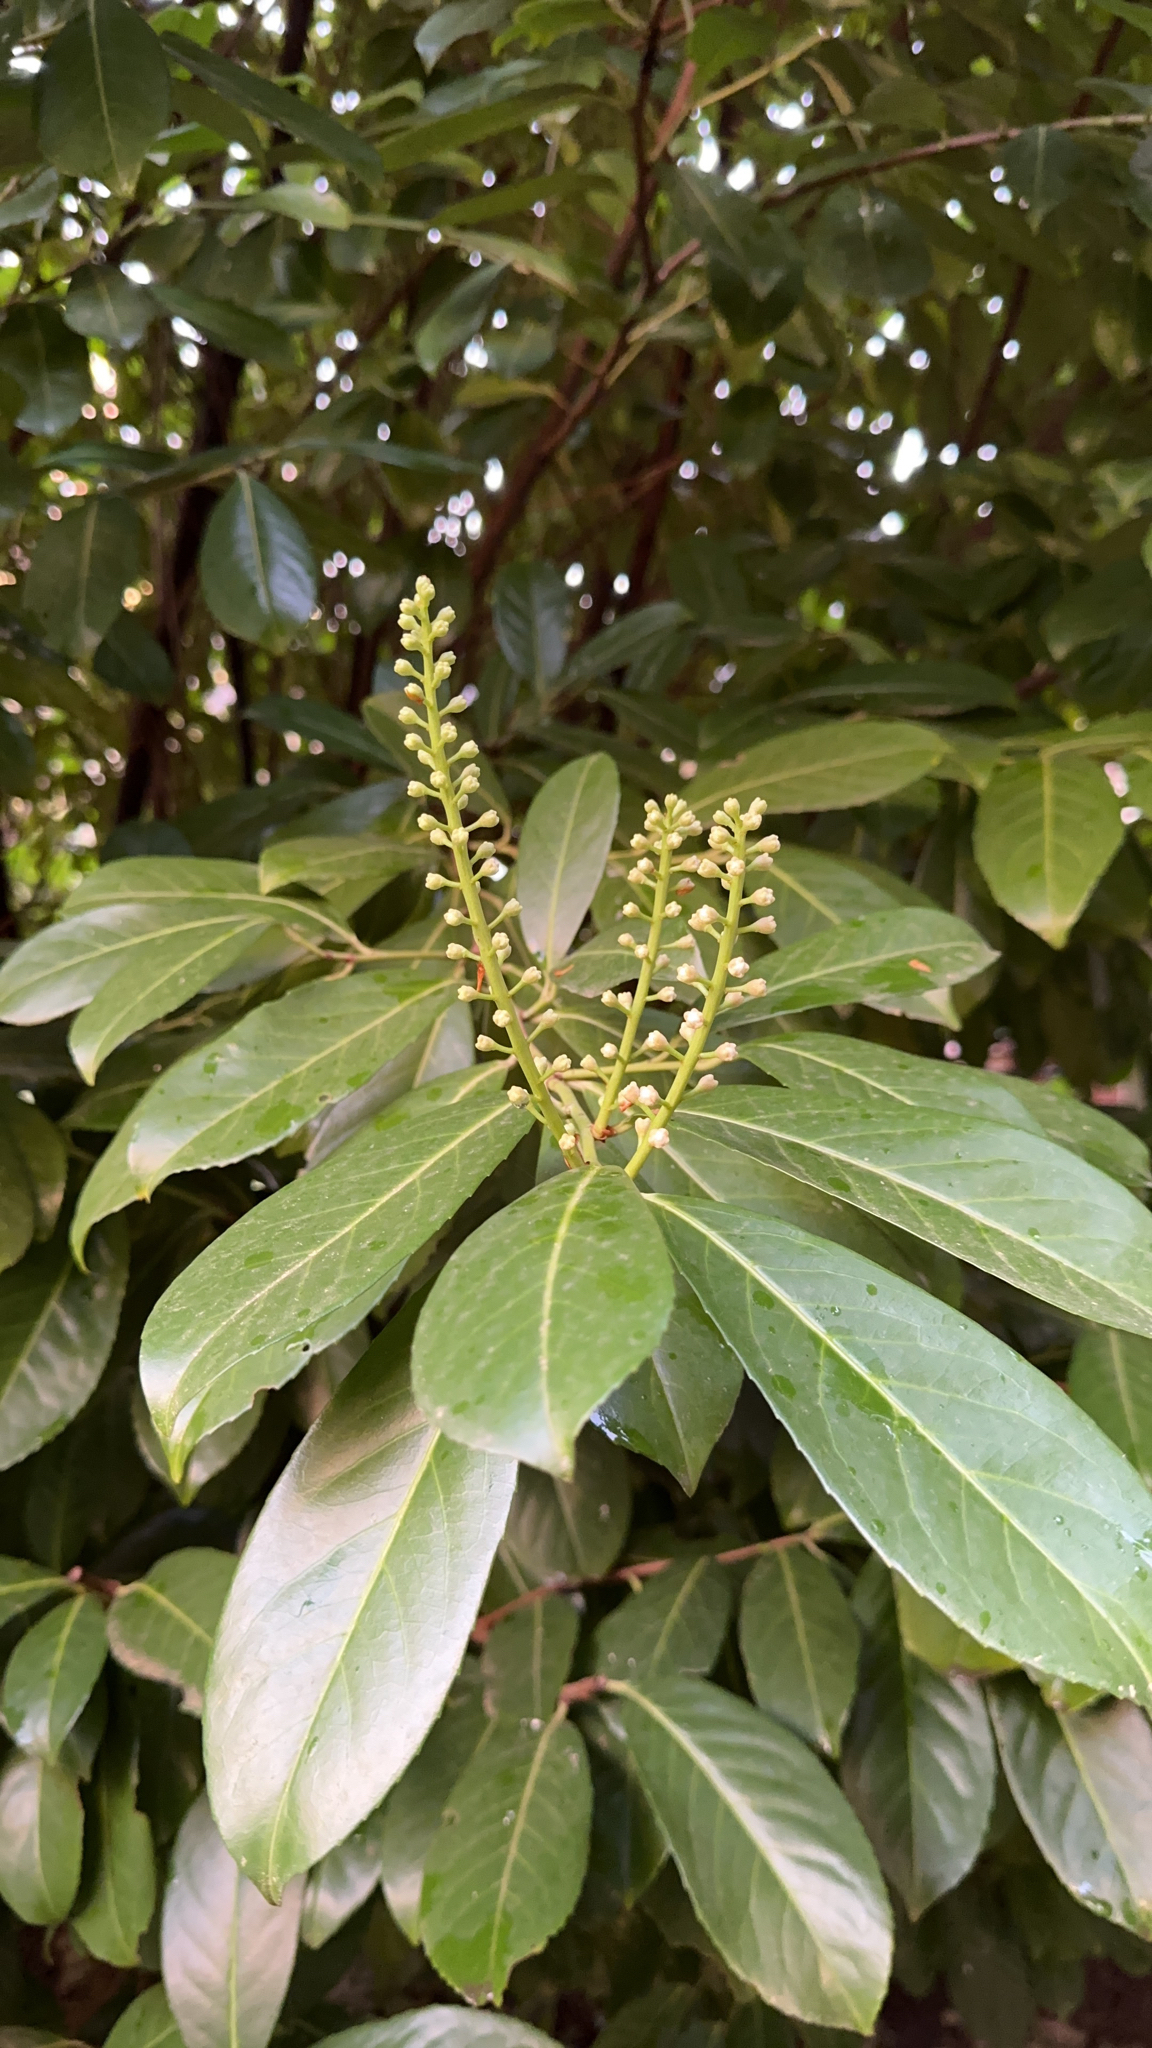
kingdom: Plantae
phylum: Tracheophyta
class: Magnoliopsida
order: Rosales
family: Rosaceae
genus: Prunus
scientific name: Prunus laurocerasus
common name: Cherry laurel
